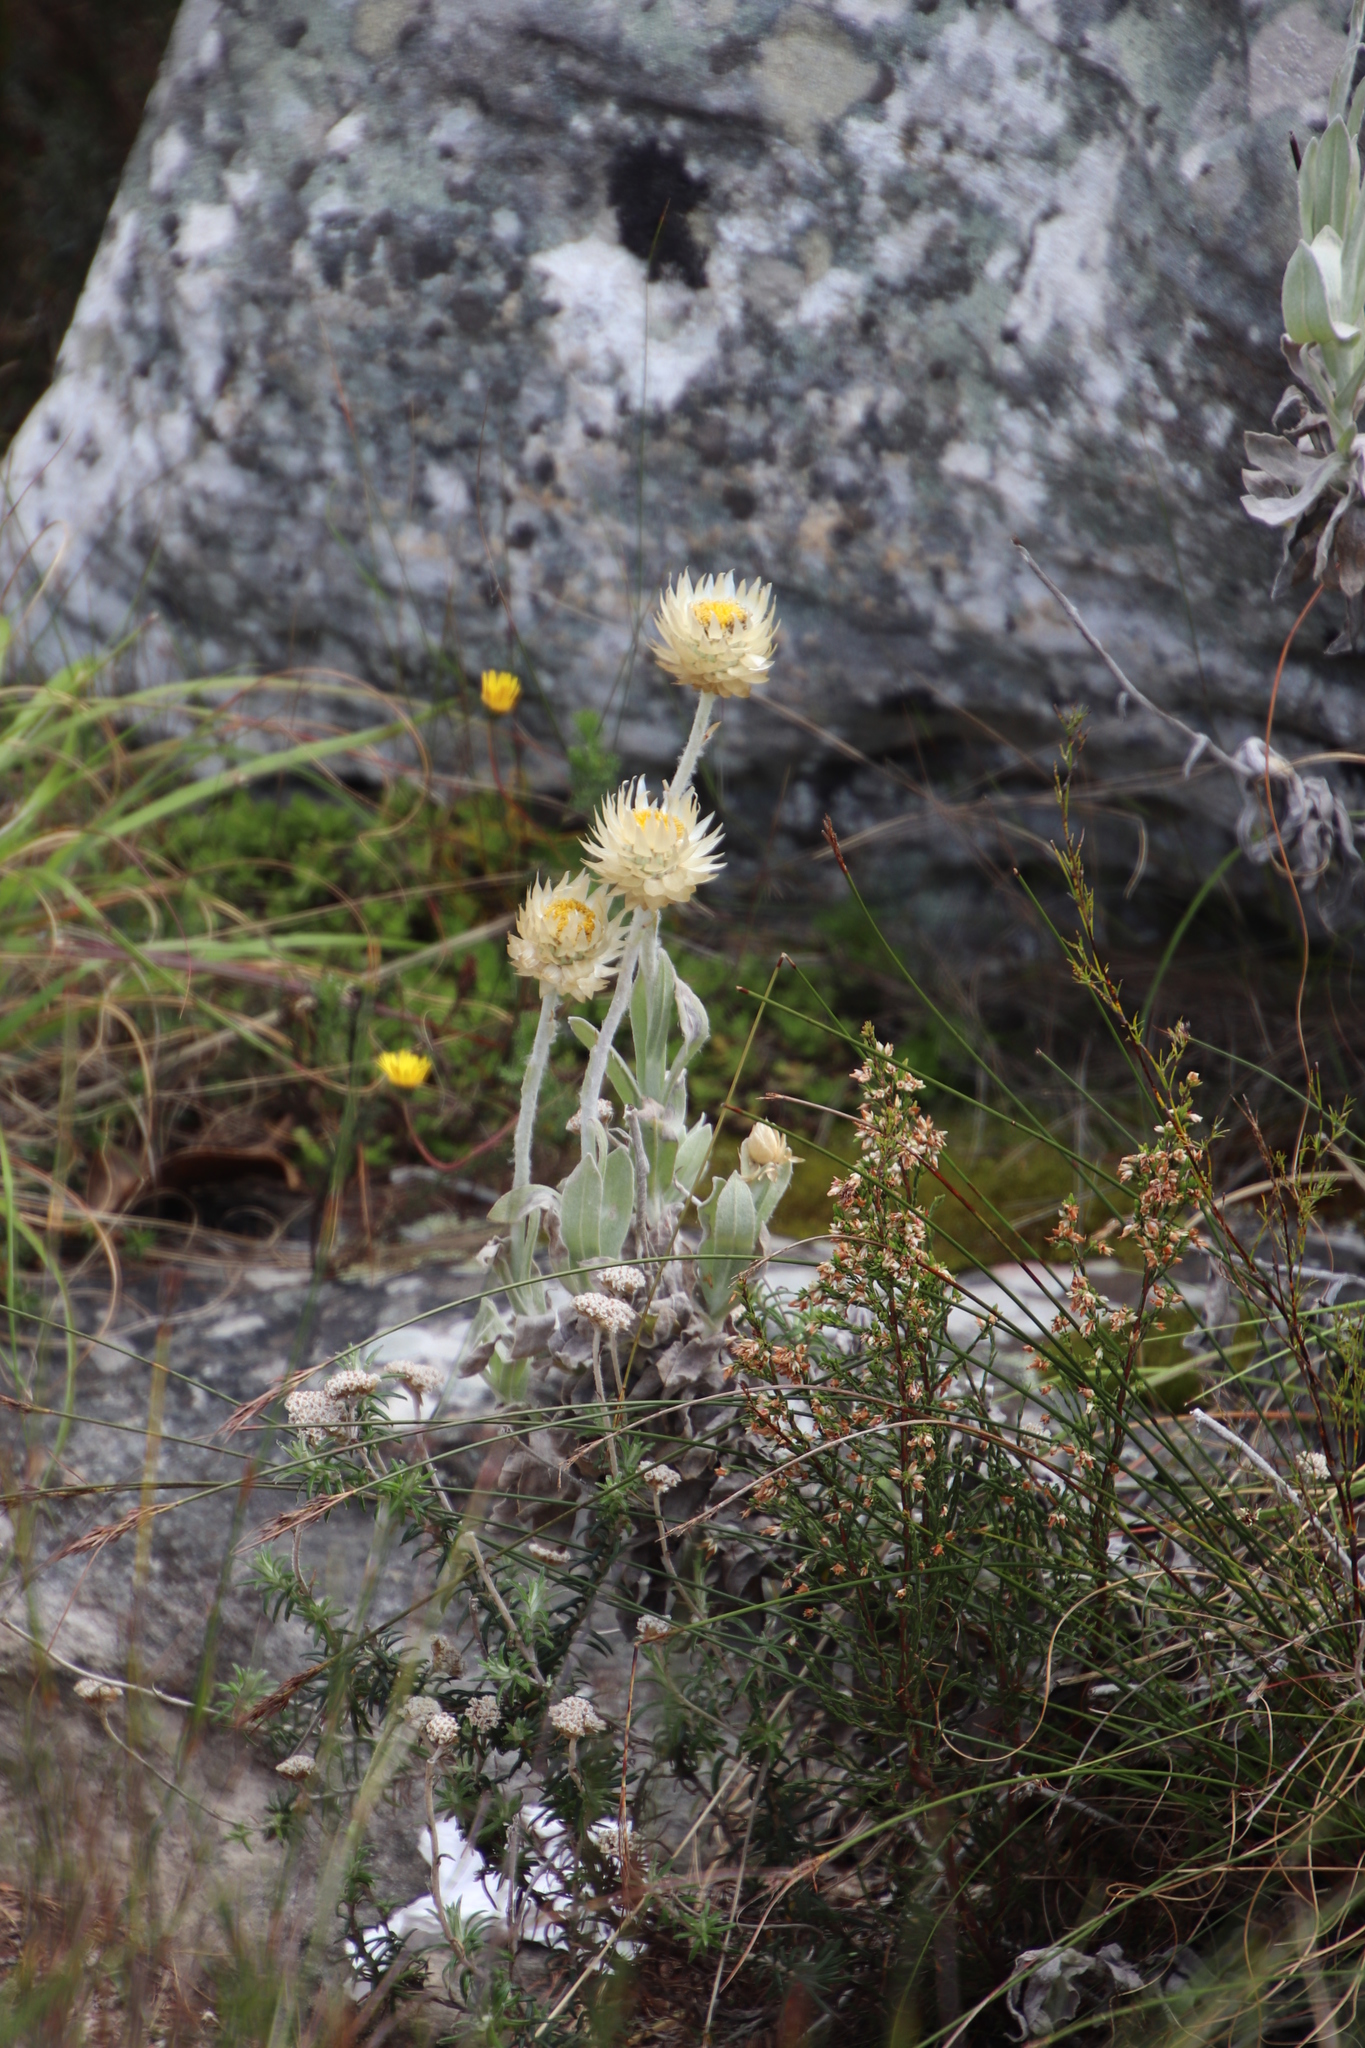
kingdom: Plantae
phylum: Tracheophyta
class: Magnoliopsida
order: Asterales
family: Asteraceae
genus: Syncarpha
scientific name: Syncarpha speciosissima
